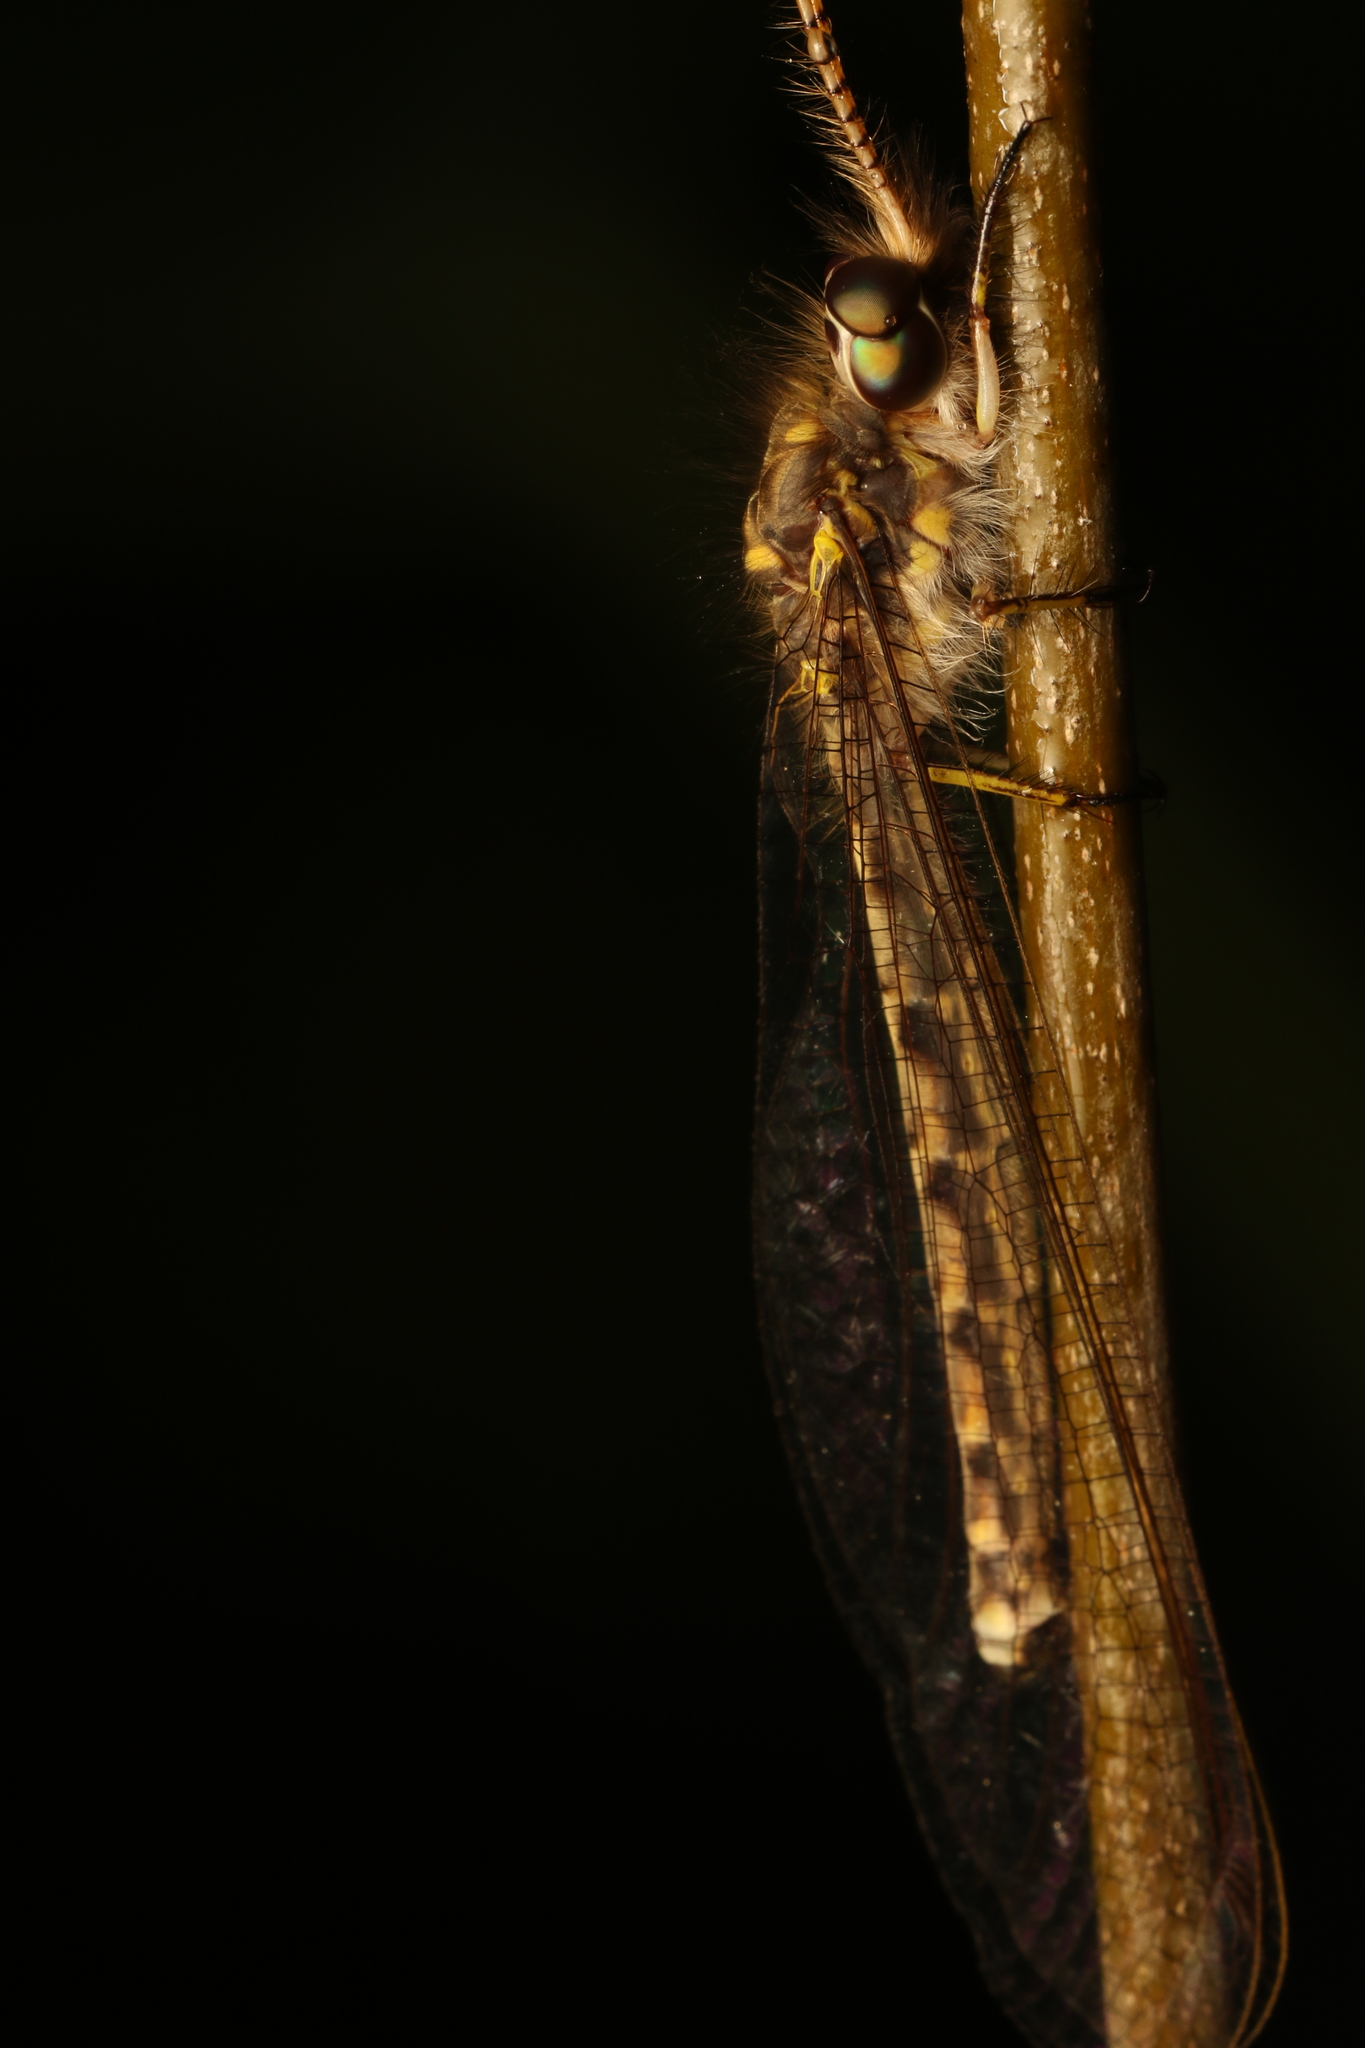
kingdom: Animalia
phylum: Arthropoda
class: Insecta
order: Neuroptera
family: Ascalaphidae
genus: Ameropterus
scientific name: Ameropterus versicolor
